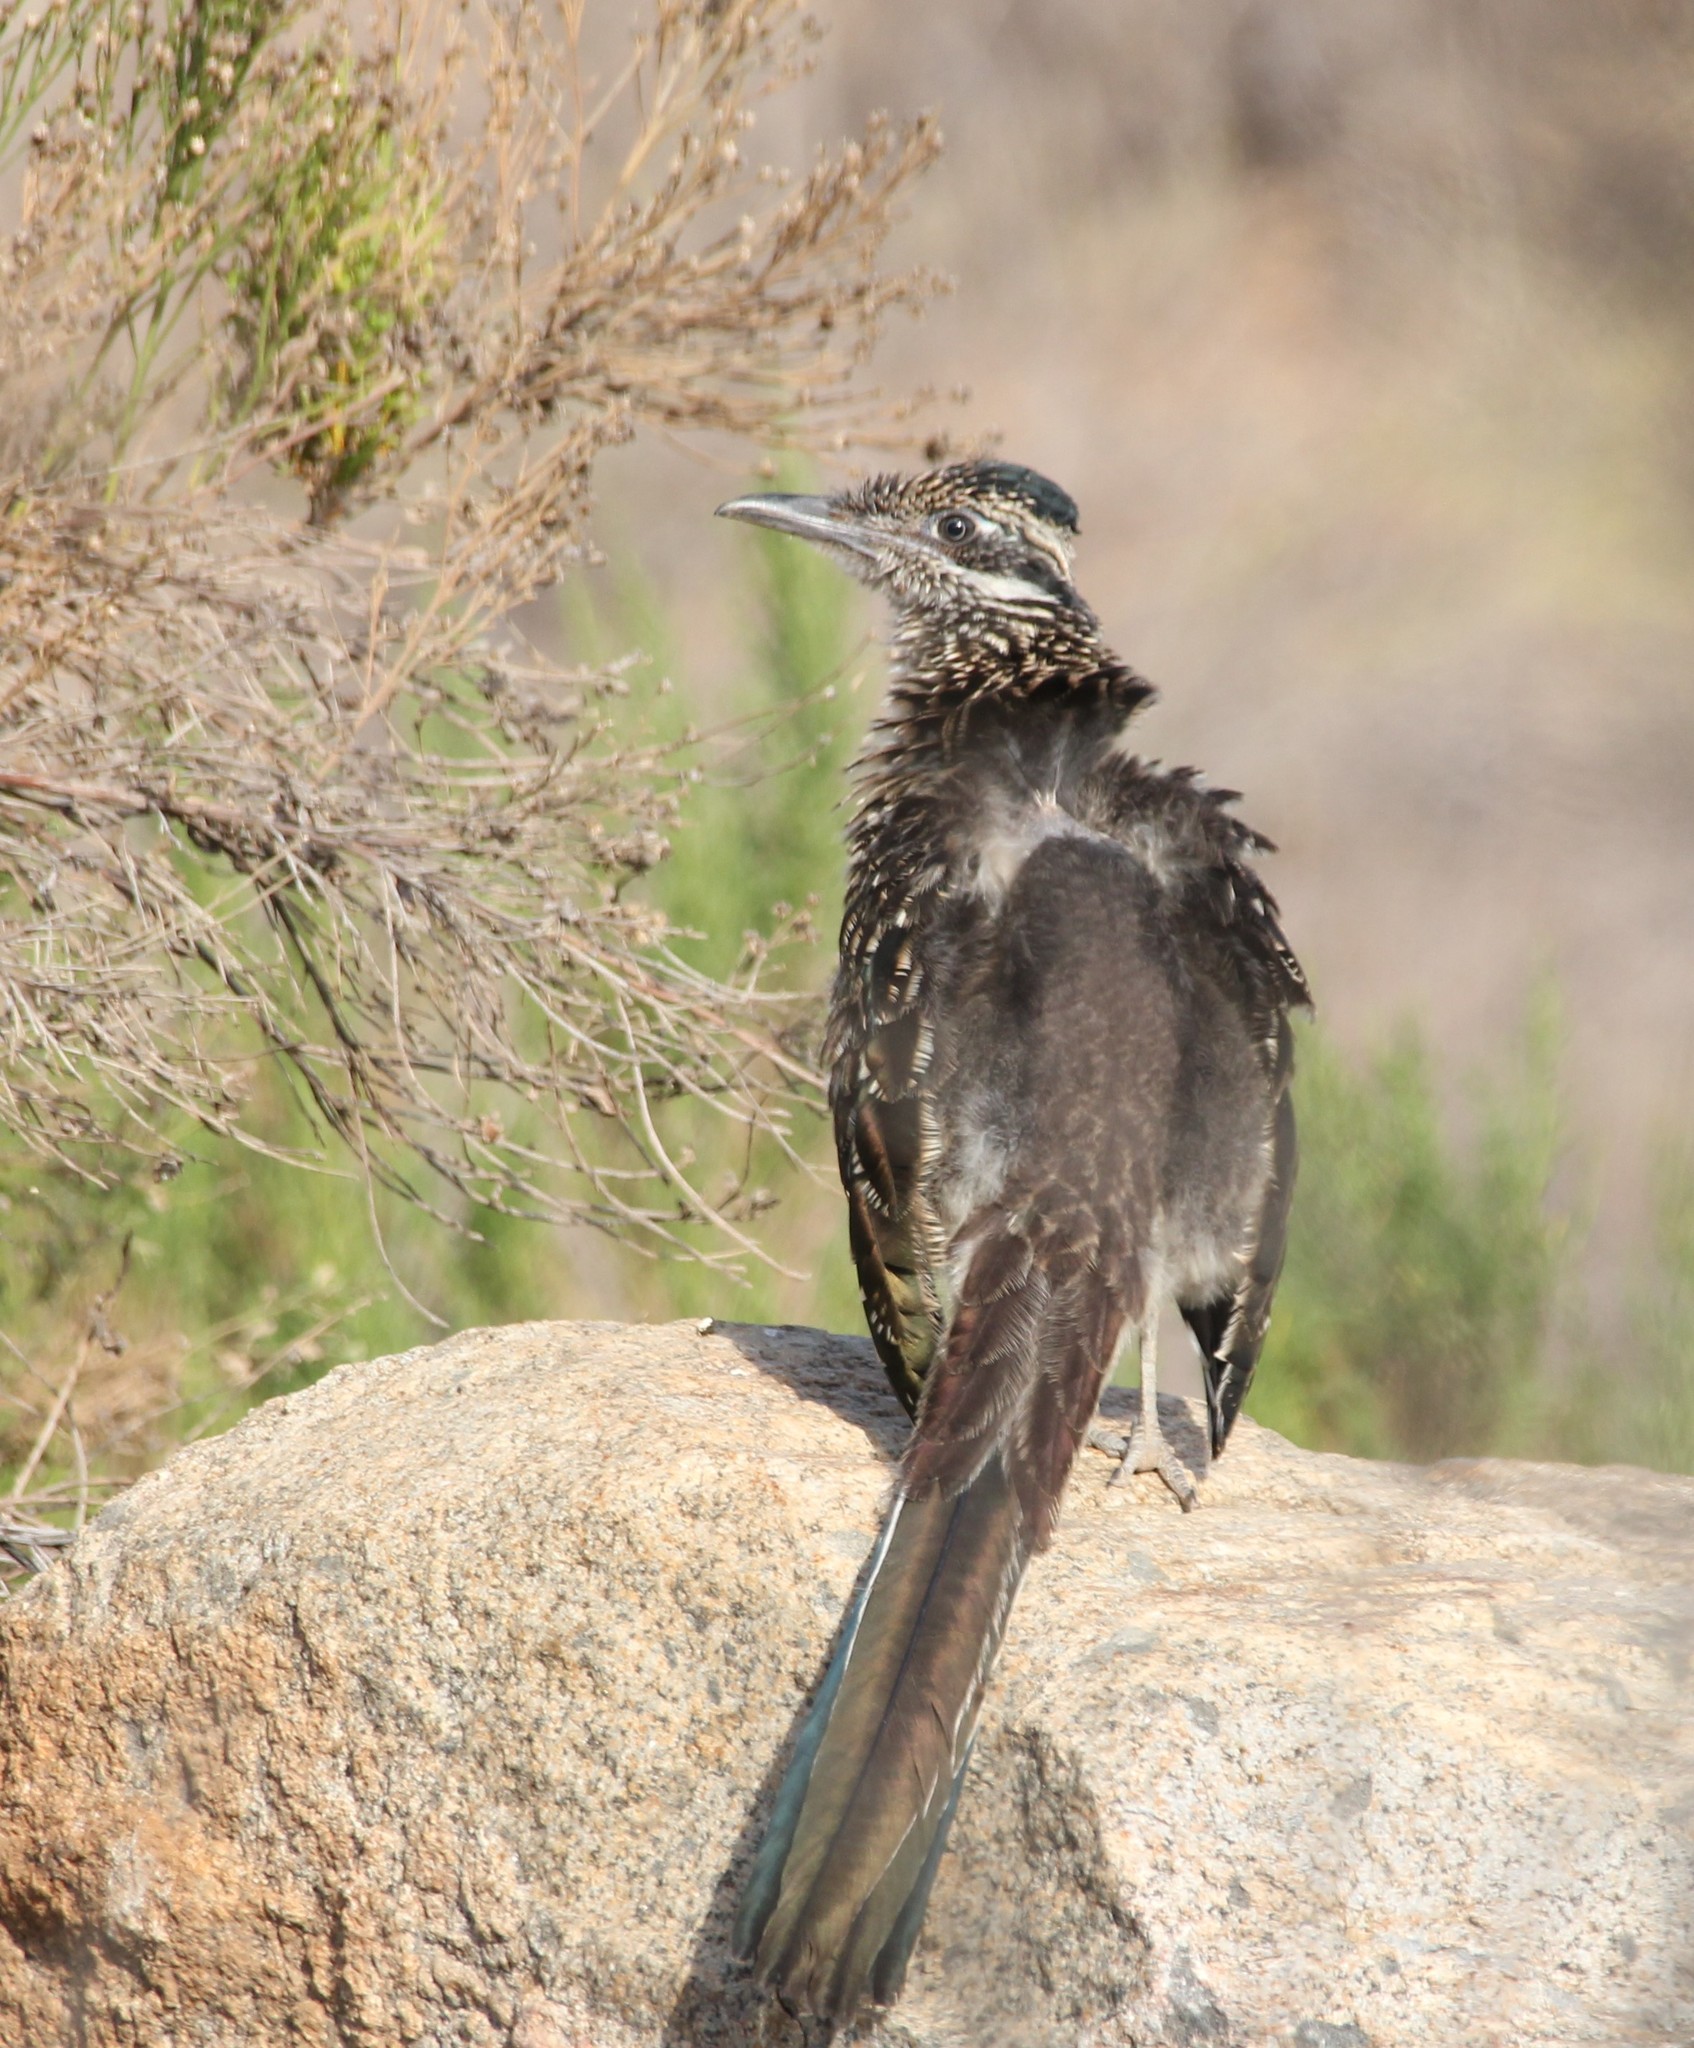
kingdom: Animalia
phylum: Chordata
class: Aves
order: Cuculiformes
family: Cuculidae
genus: Geococcyx
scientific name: Geococcyx californianus
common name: Greater roadrunner
